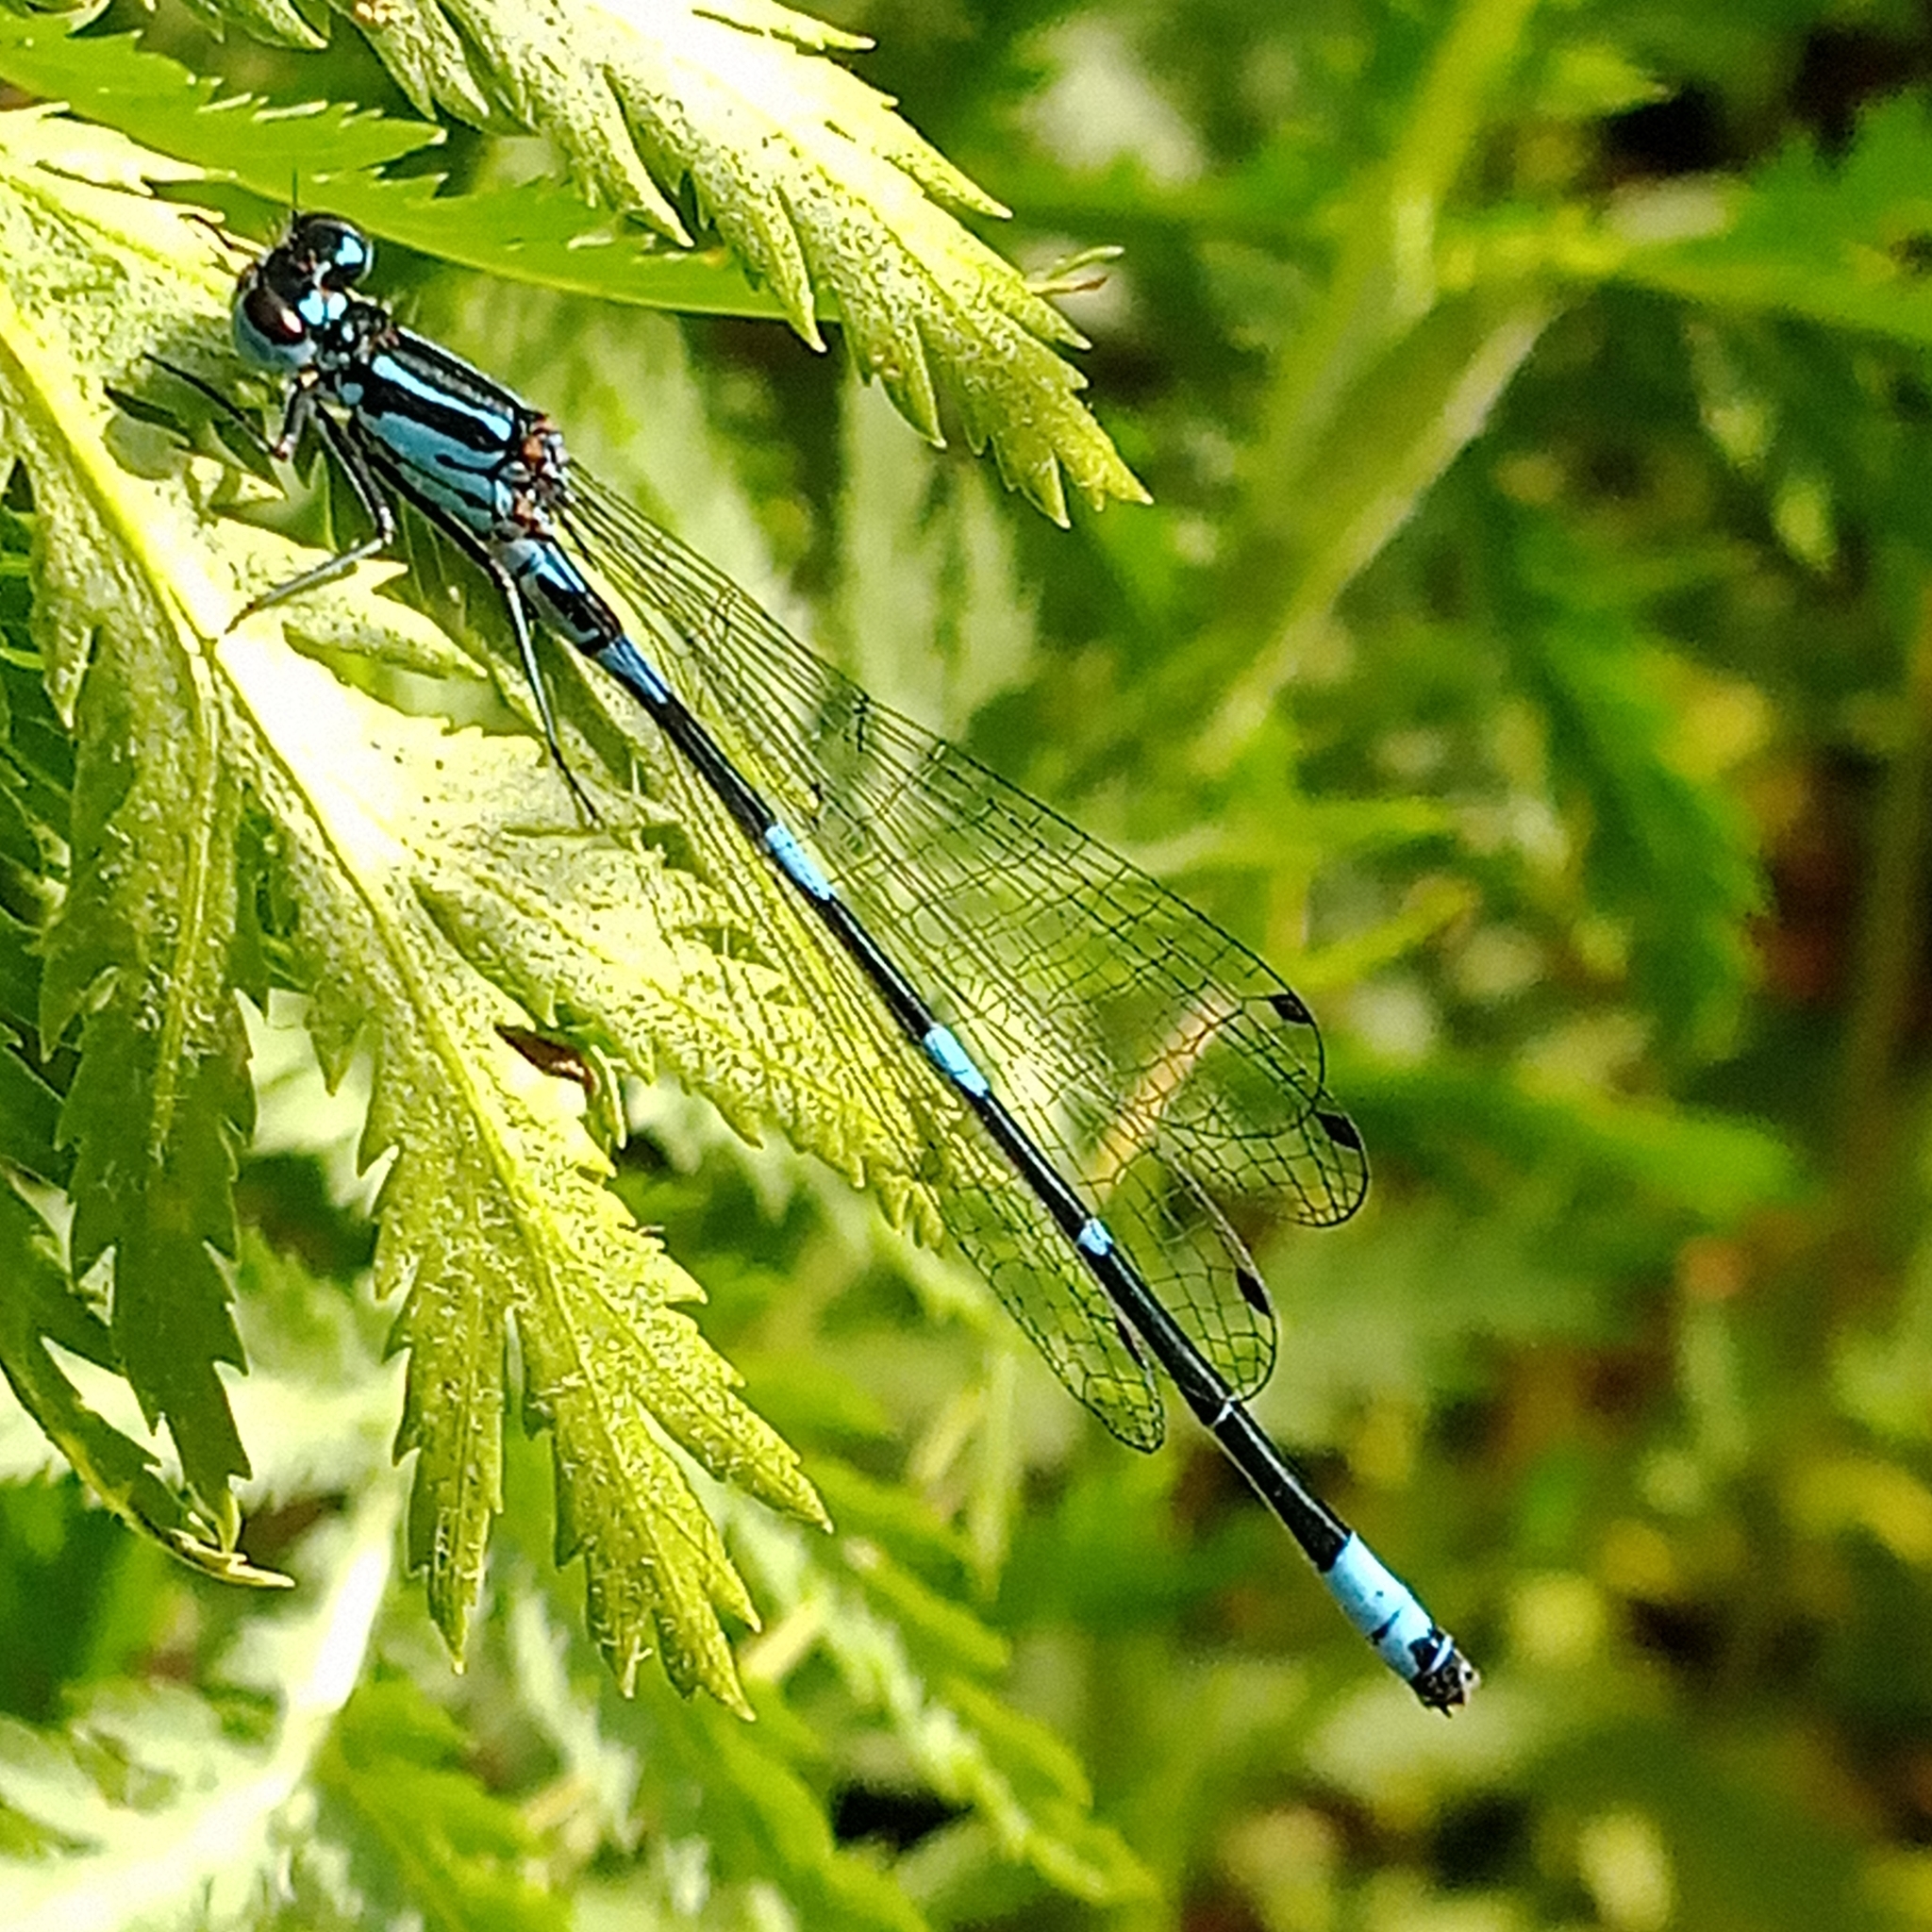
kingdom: Animalia
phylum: Arthropoda
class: Insecta
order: Odonata
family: Coenagrionidae
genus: Coenagrion
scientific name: Coenagrion pulchellum
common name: Variable bluet
